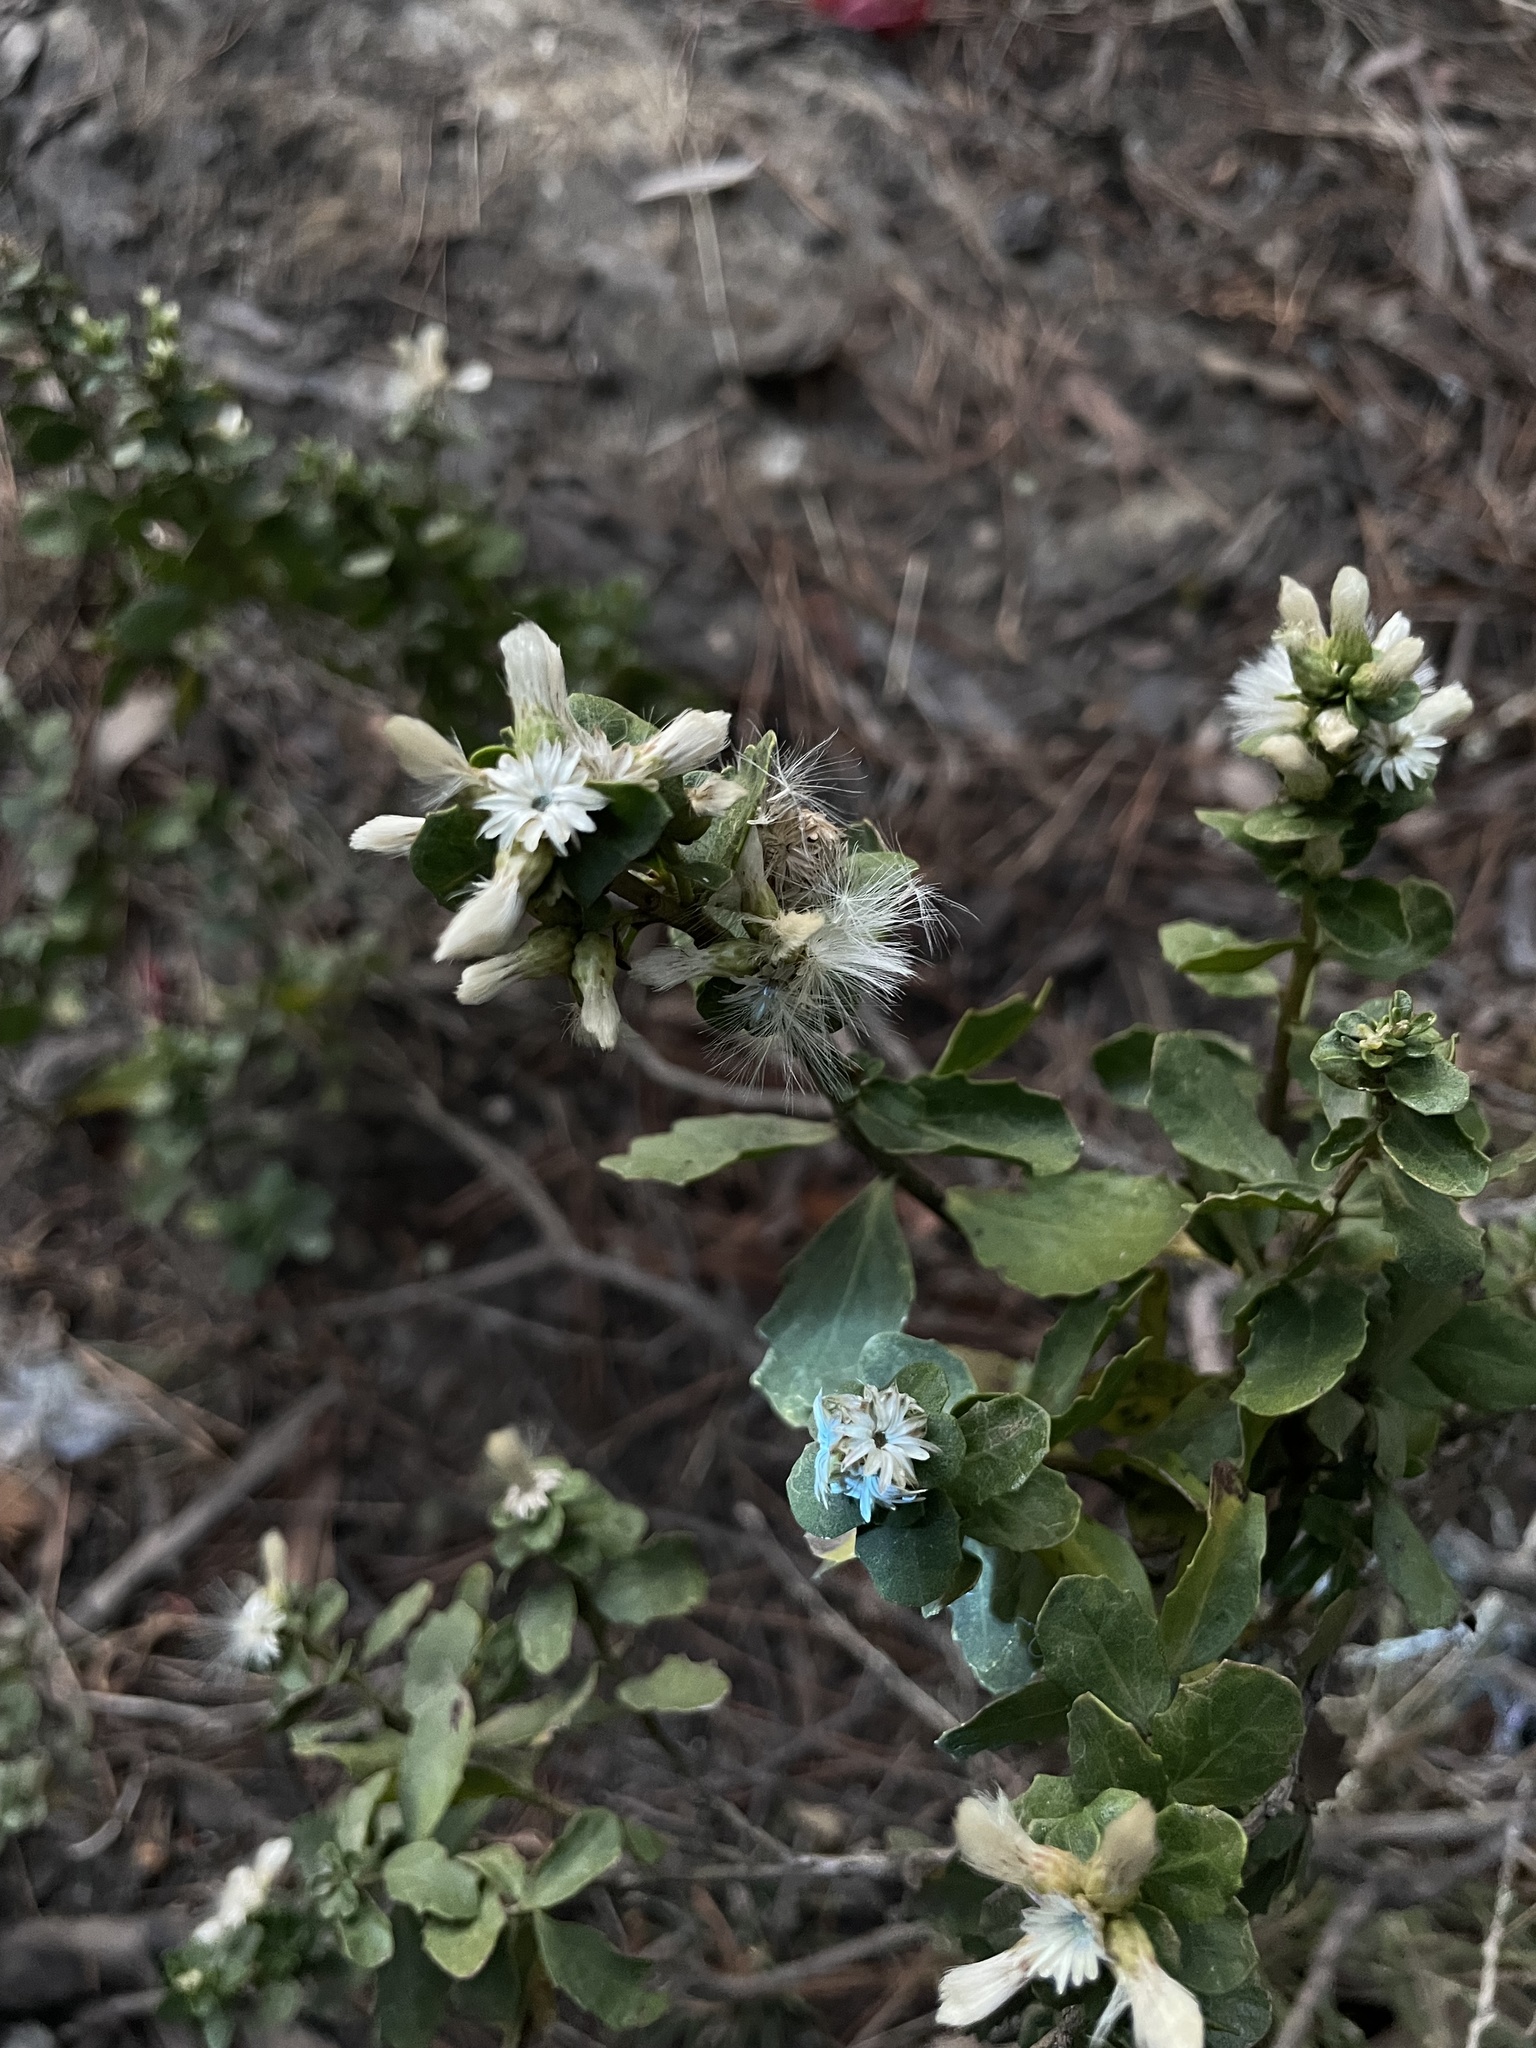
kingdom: Plantae
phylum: Tracheophyta
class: Magnoliopsida
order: Asterales
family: Asteraceae
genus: Baccharis
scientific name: Baccharis pilularis
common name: Coyotebrush
